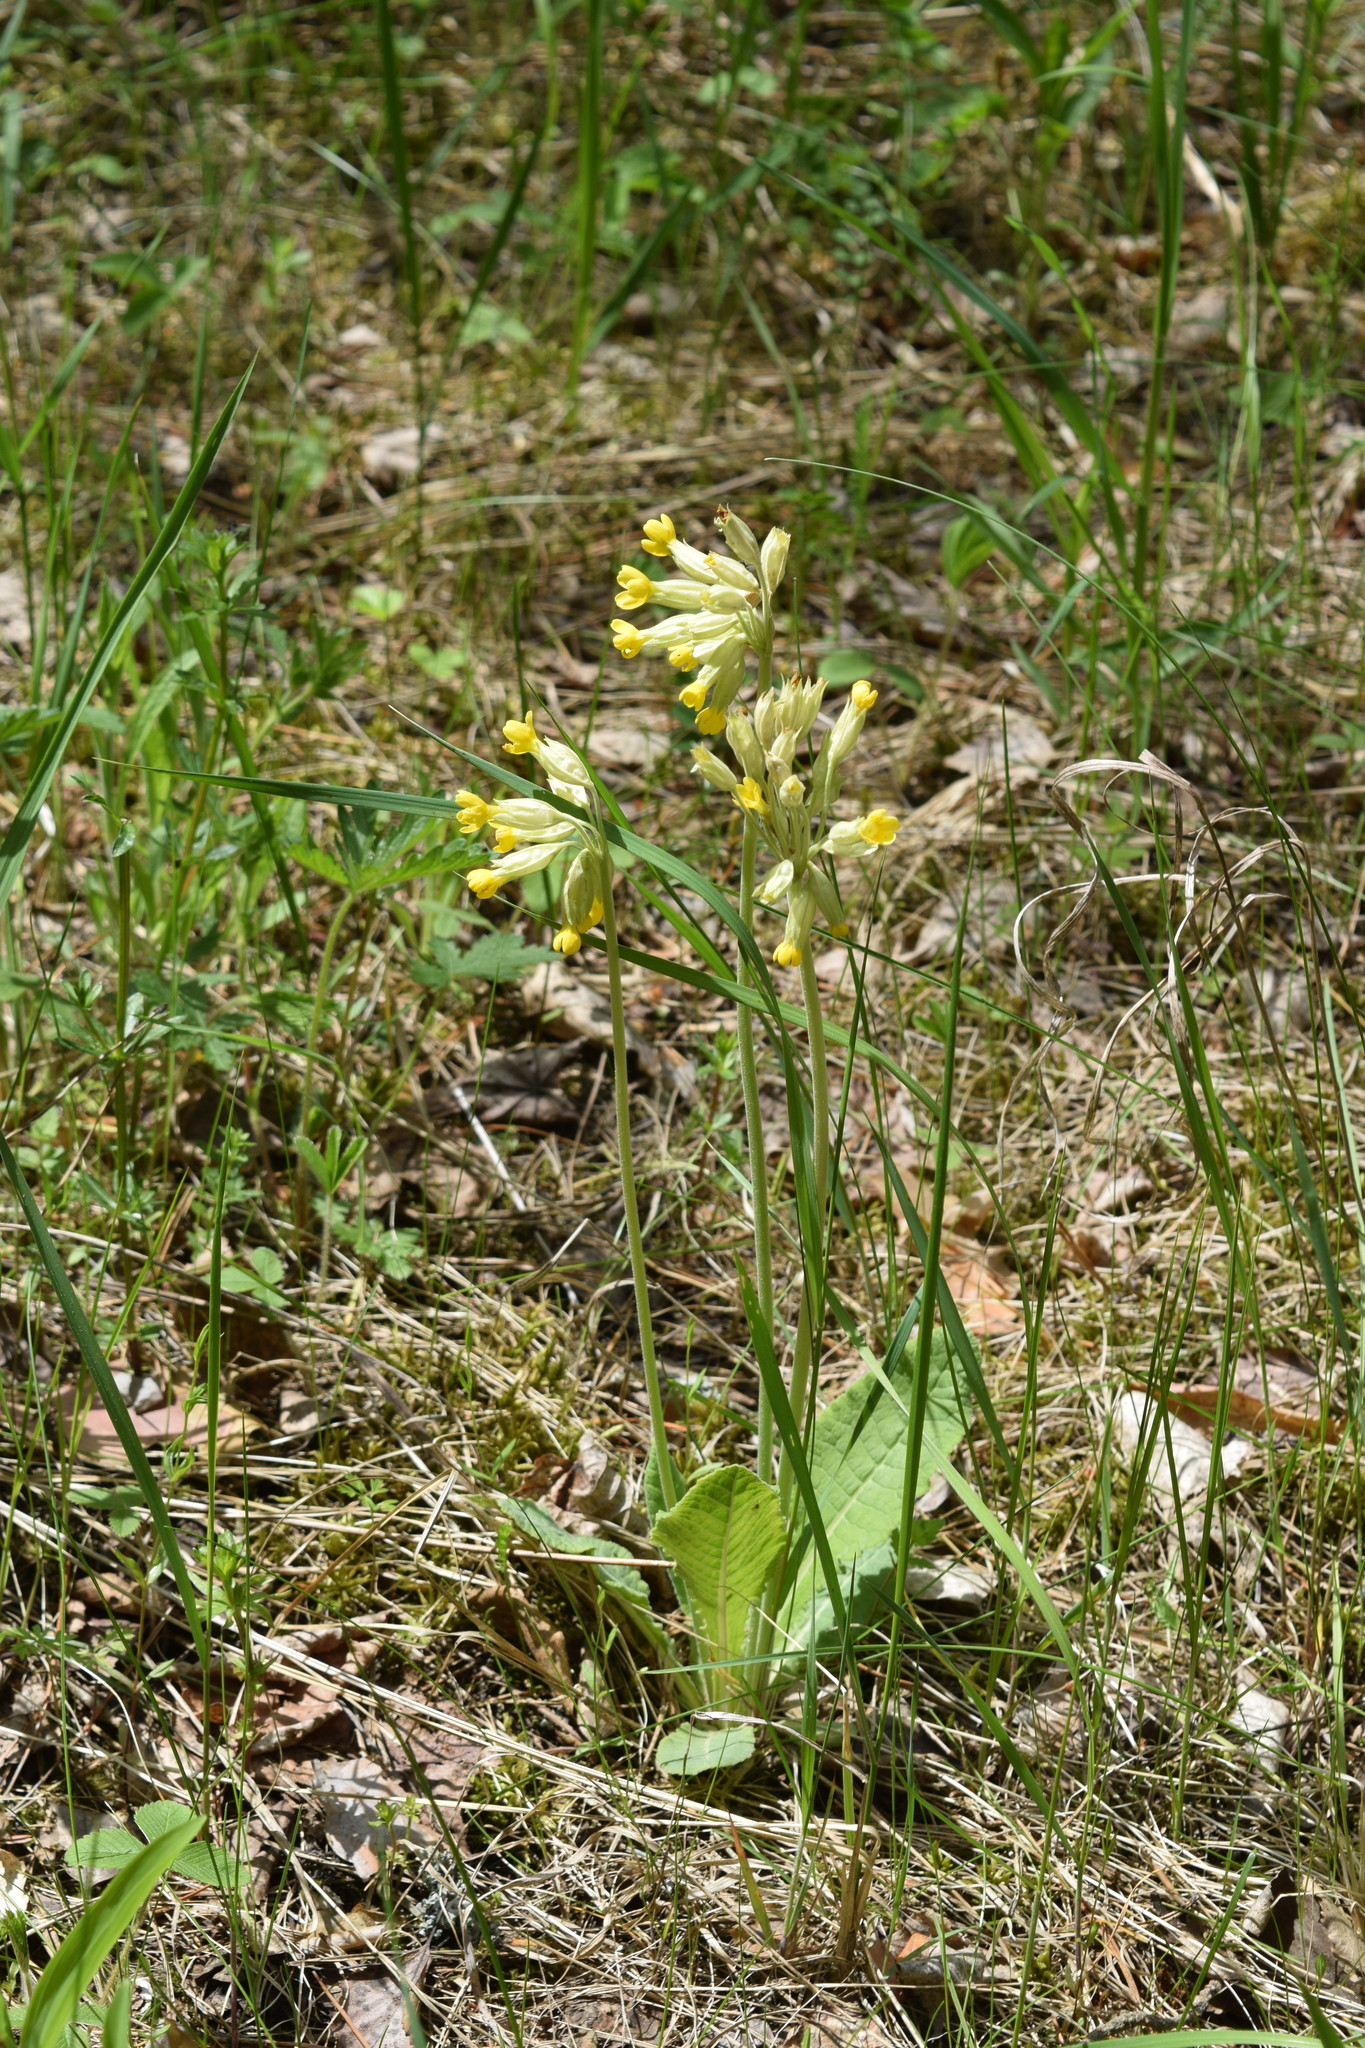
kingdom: Plantae
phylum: Tracheophyta
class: Magnoliopsida
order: Ericales
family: Primulaceae
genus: Primula
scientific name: Primula veris
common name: Cowslip
